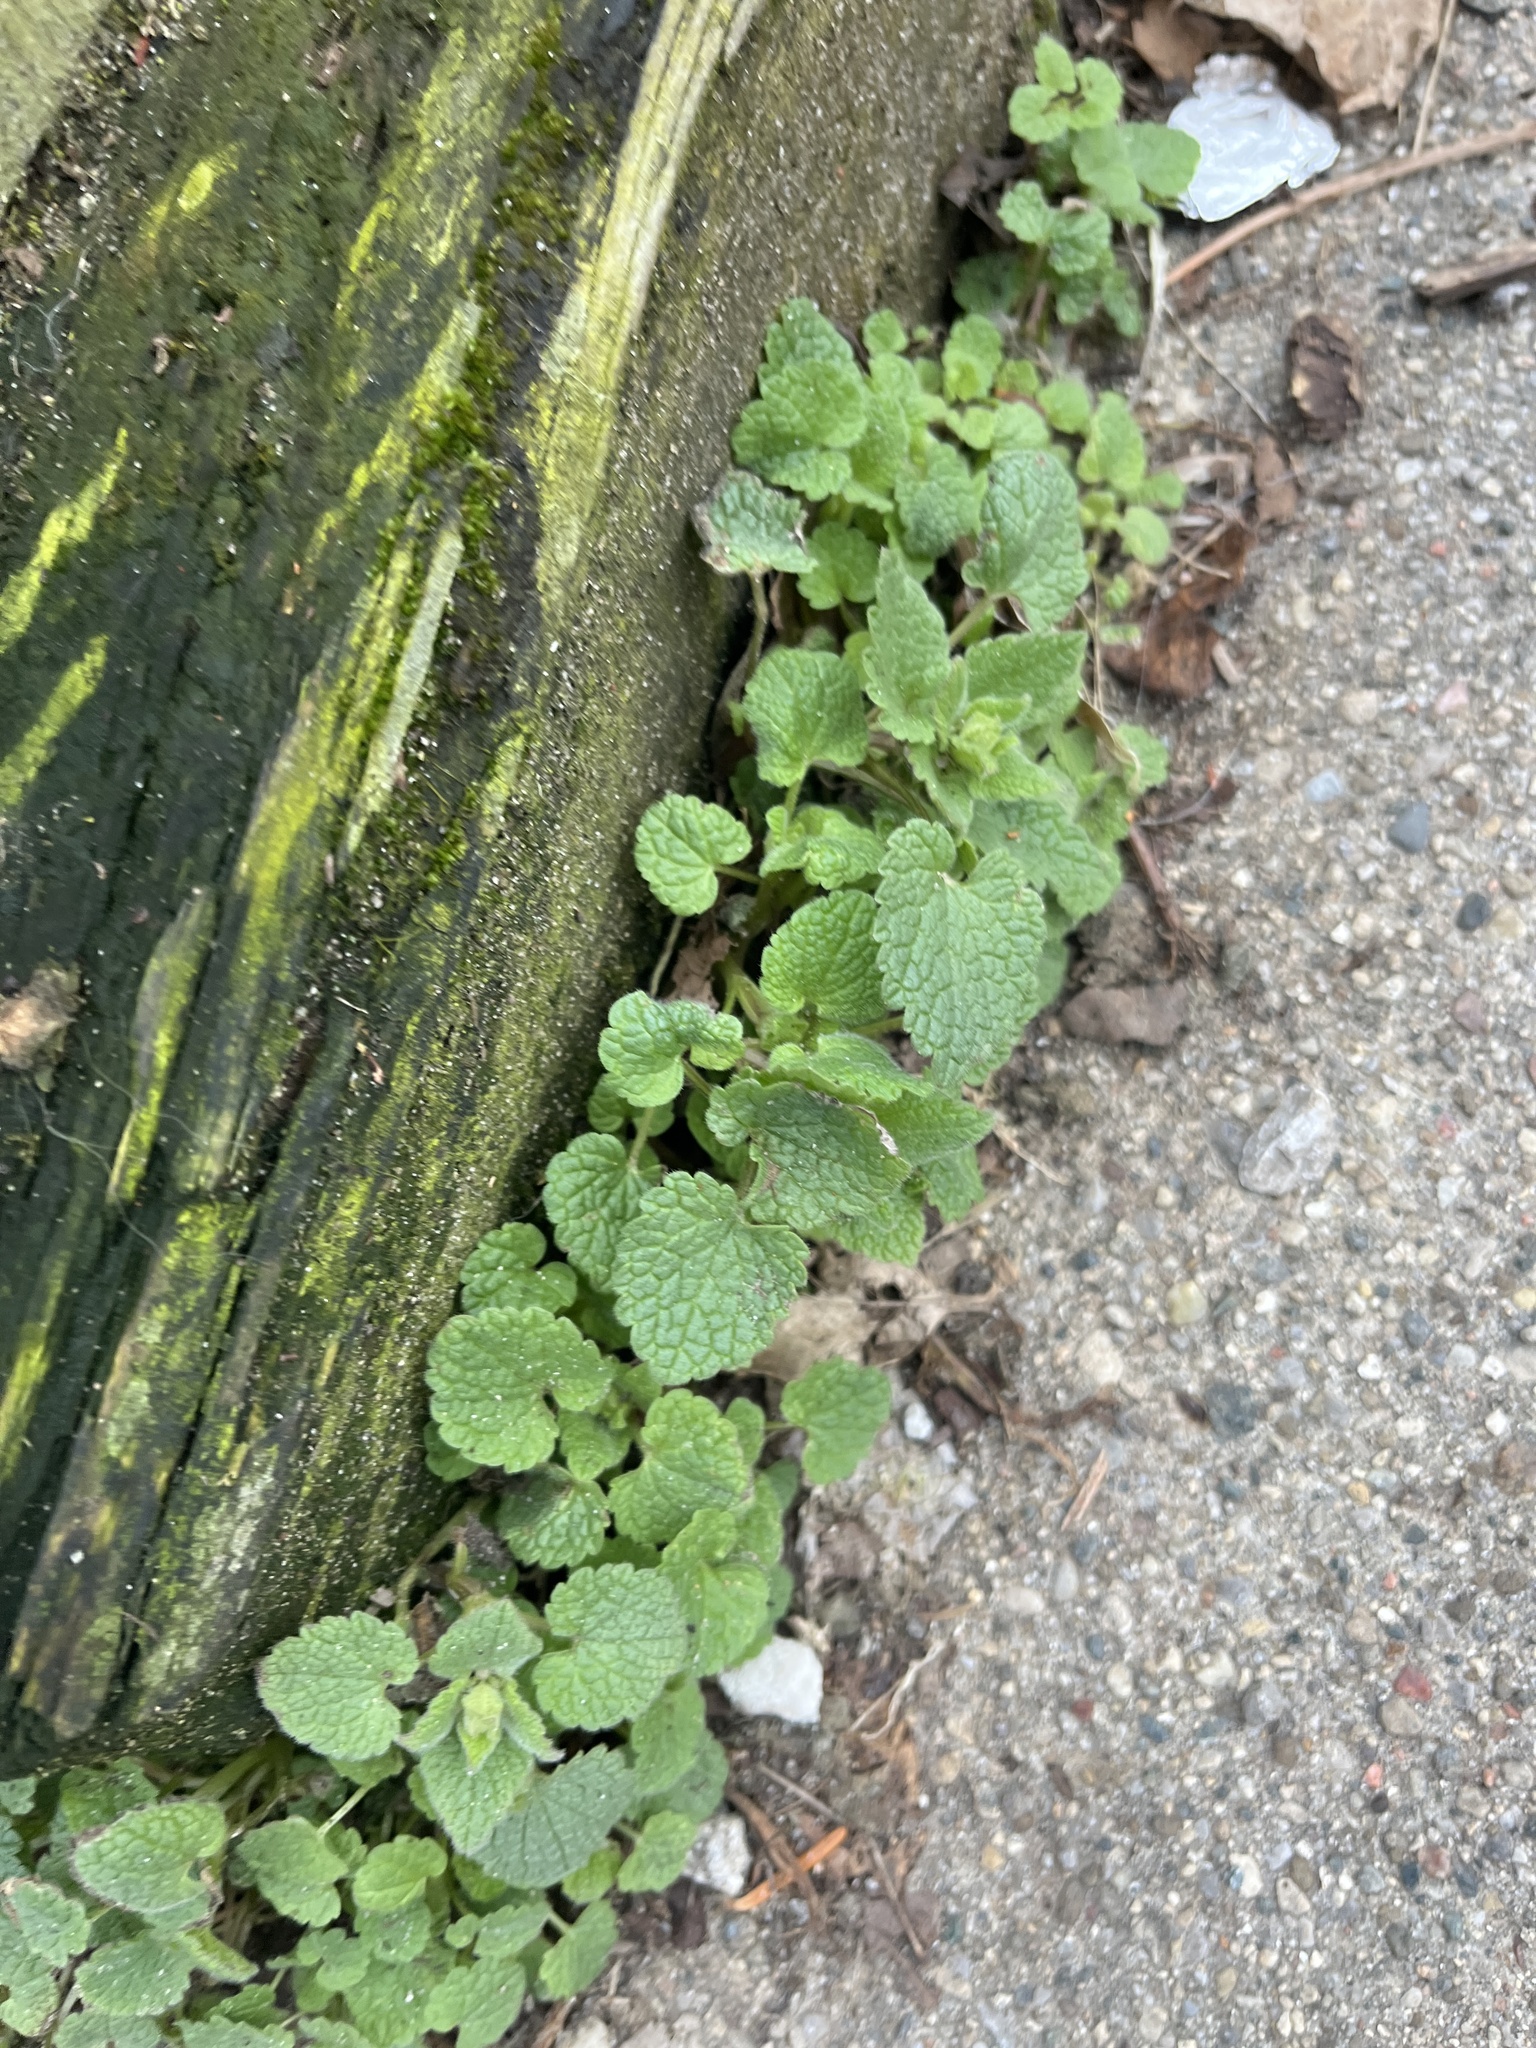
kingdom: Plantae
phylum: Tracheophyta
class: Magnoliopsida
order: Lamiales
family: Lamiaceae
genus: Lamium
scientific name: Lamium purpureum
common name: Red dead-nettle
